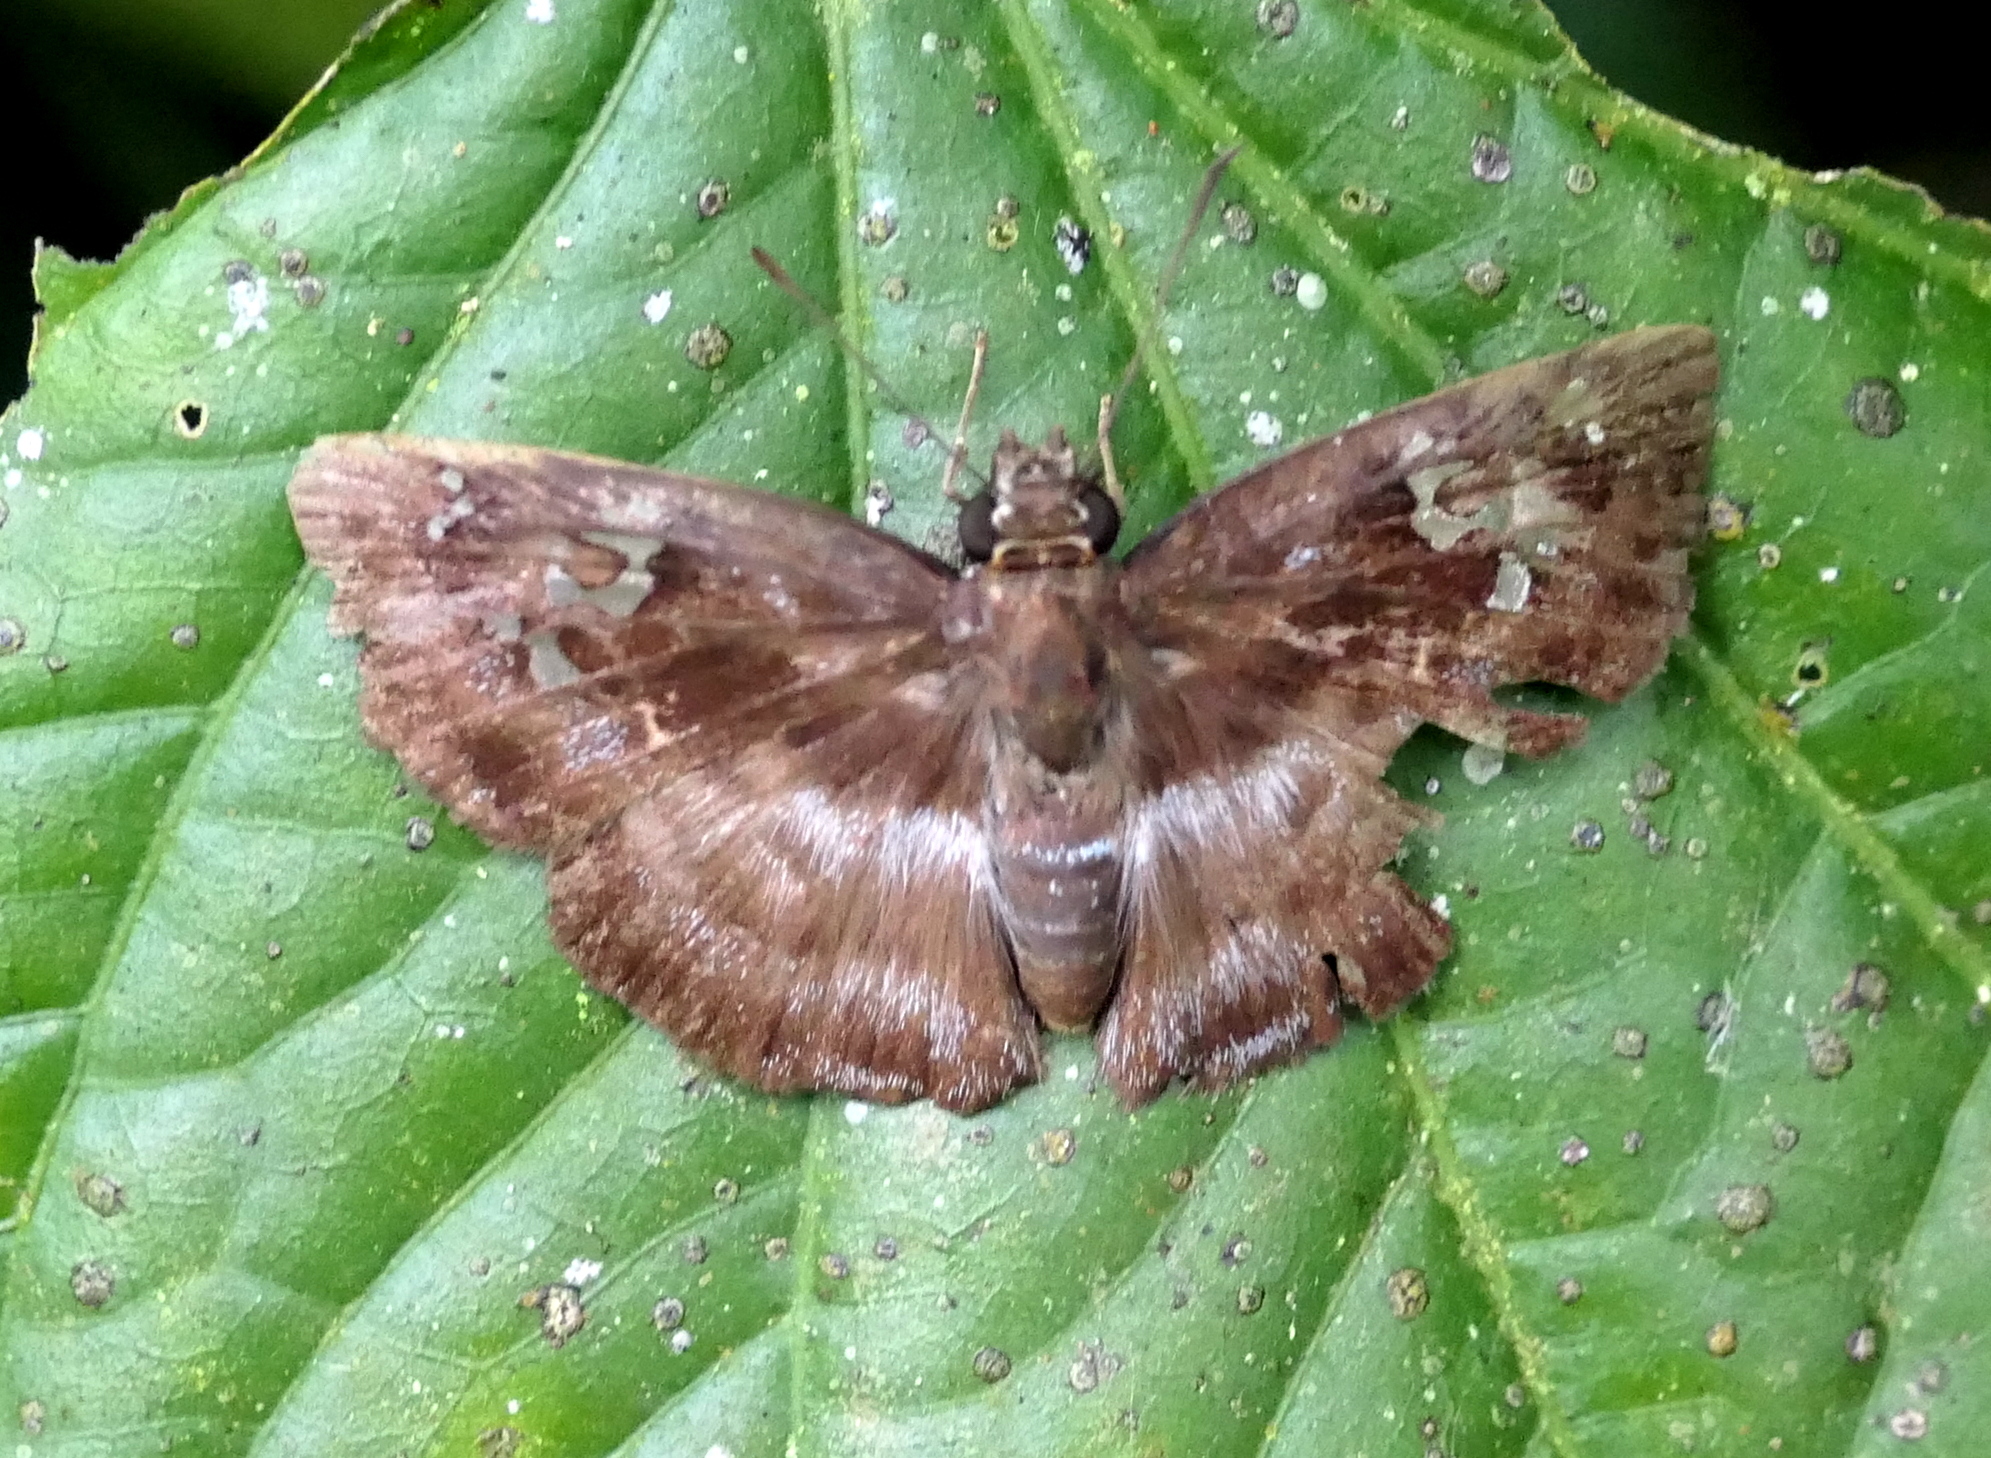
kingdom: Animalia
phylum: Arthropoda
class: Insecta
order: Lepidoptera
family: Hesperiidae
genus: Quadrus
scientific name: Quadrus cerialis
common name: Common blue-skipper
